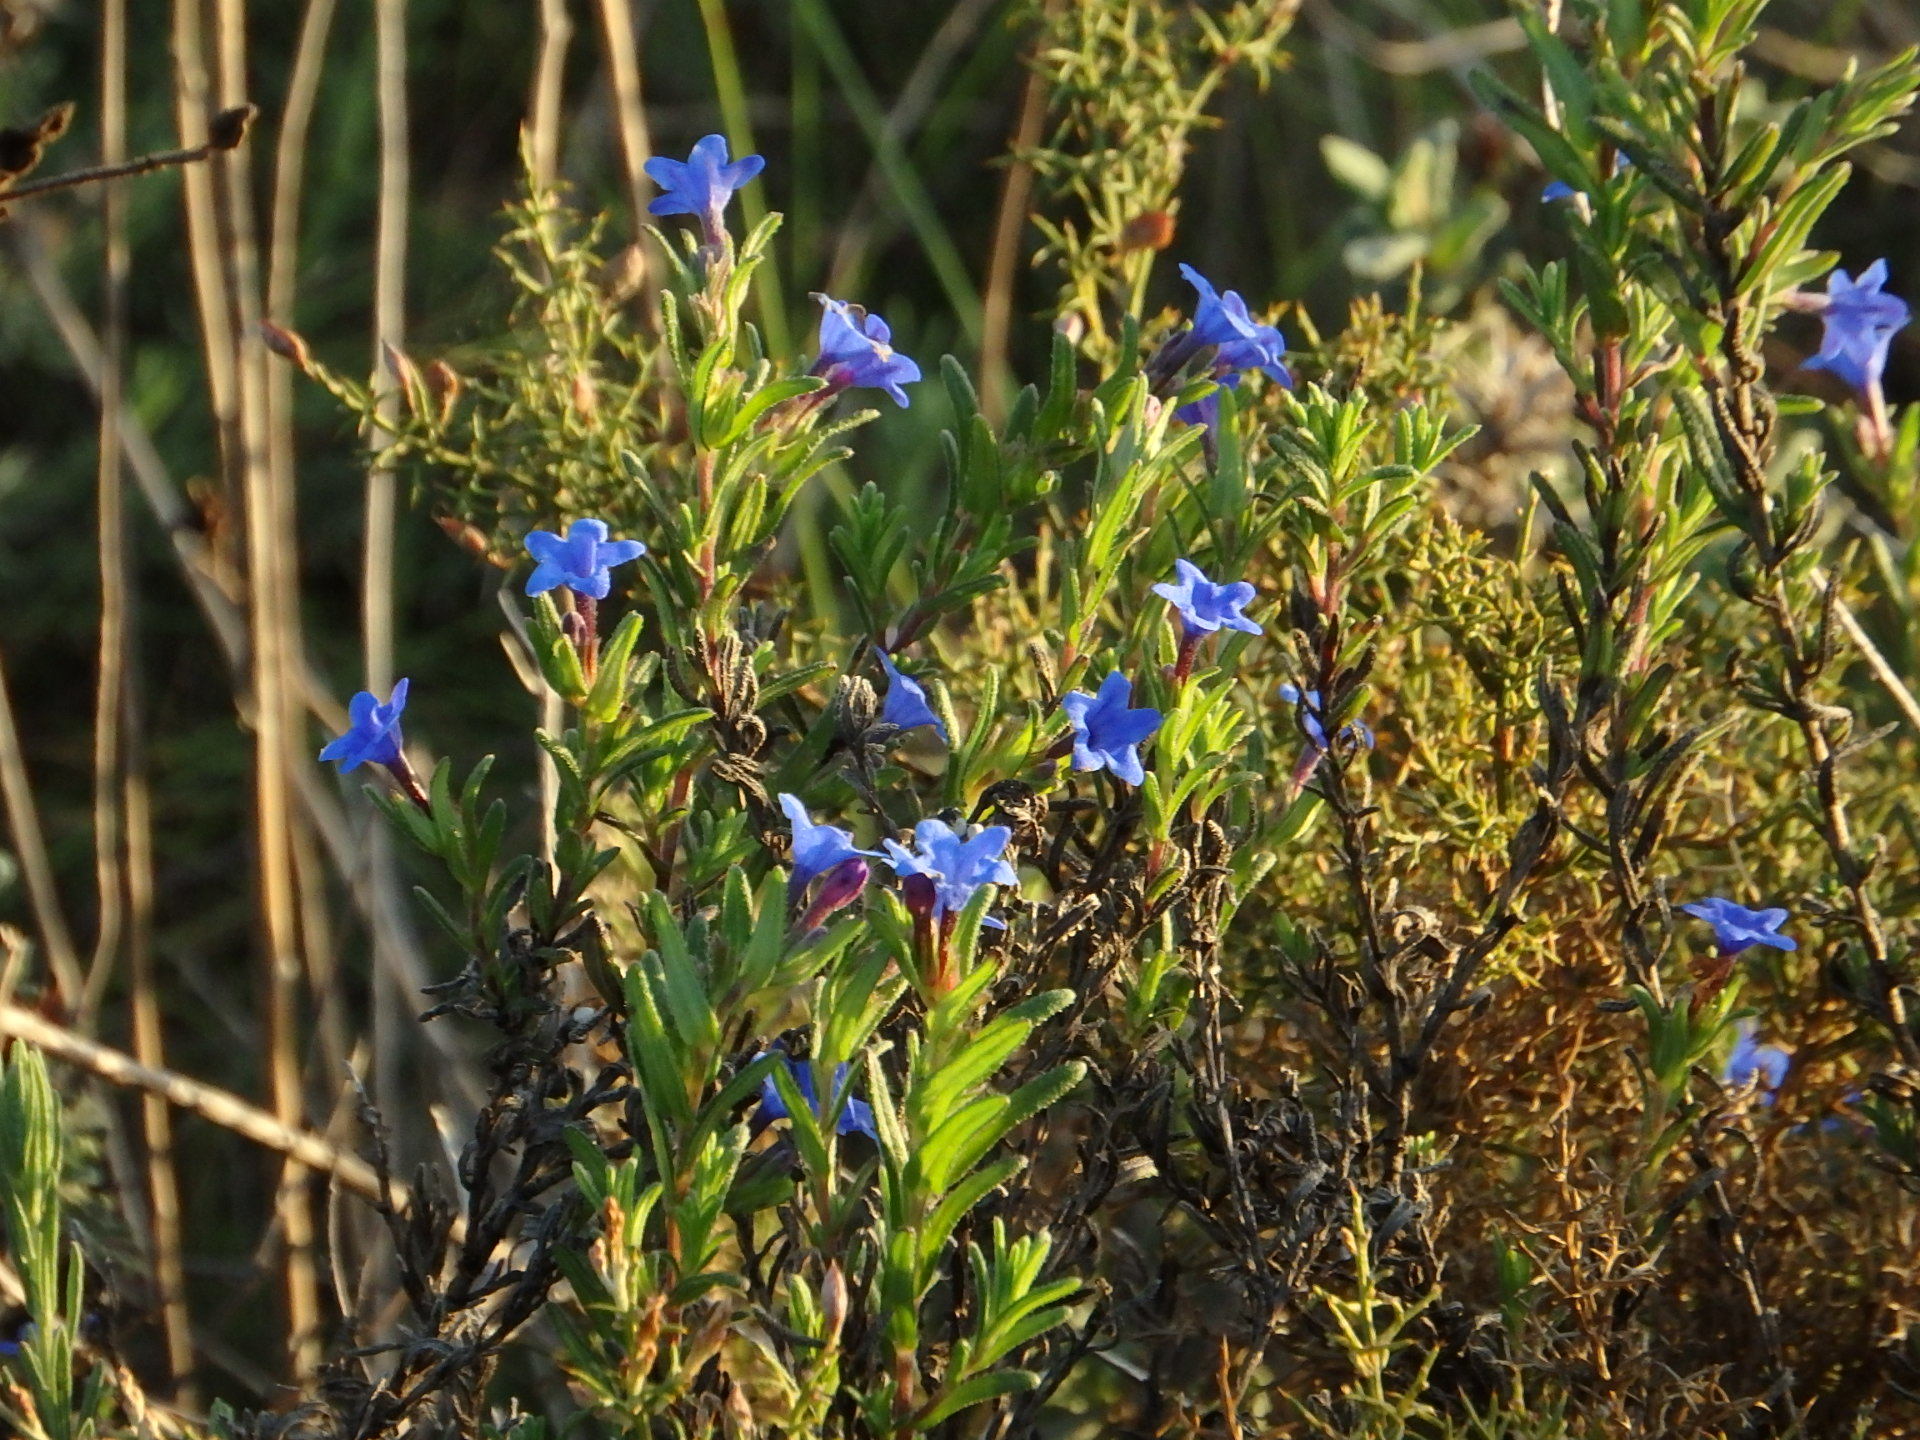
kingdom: Plantae
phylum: Tracheophyta
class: Magnoliopsida
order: Boraginales
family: Boraginaceae
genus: Glandora
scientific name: Glandora prostrata
